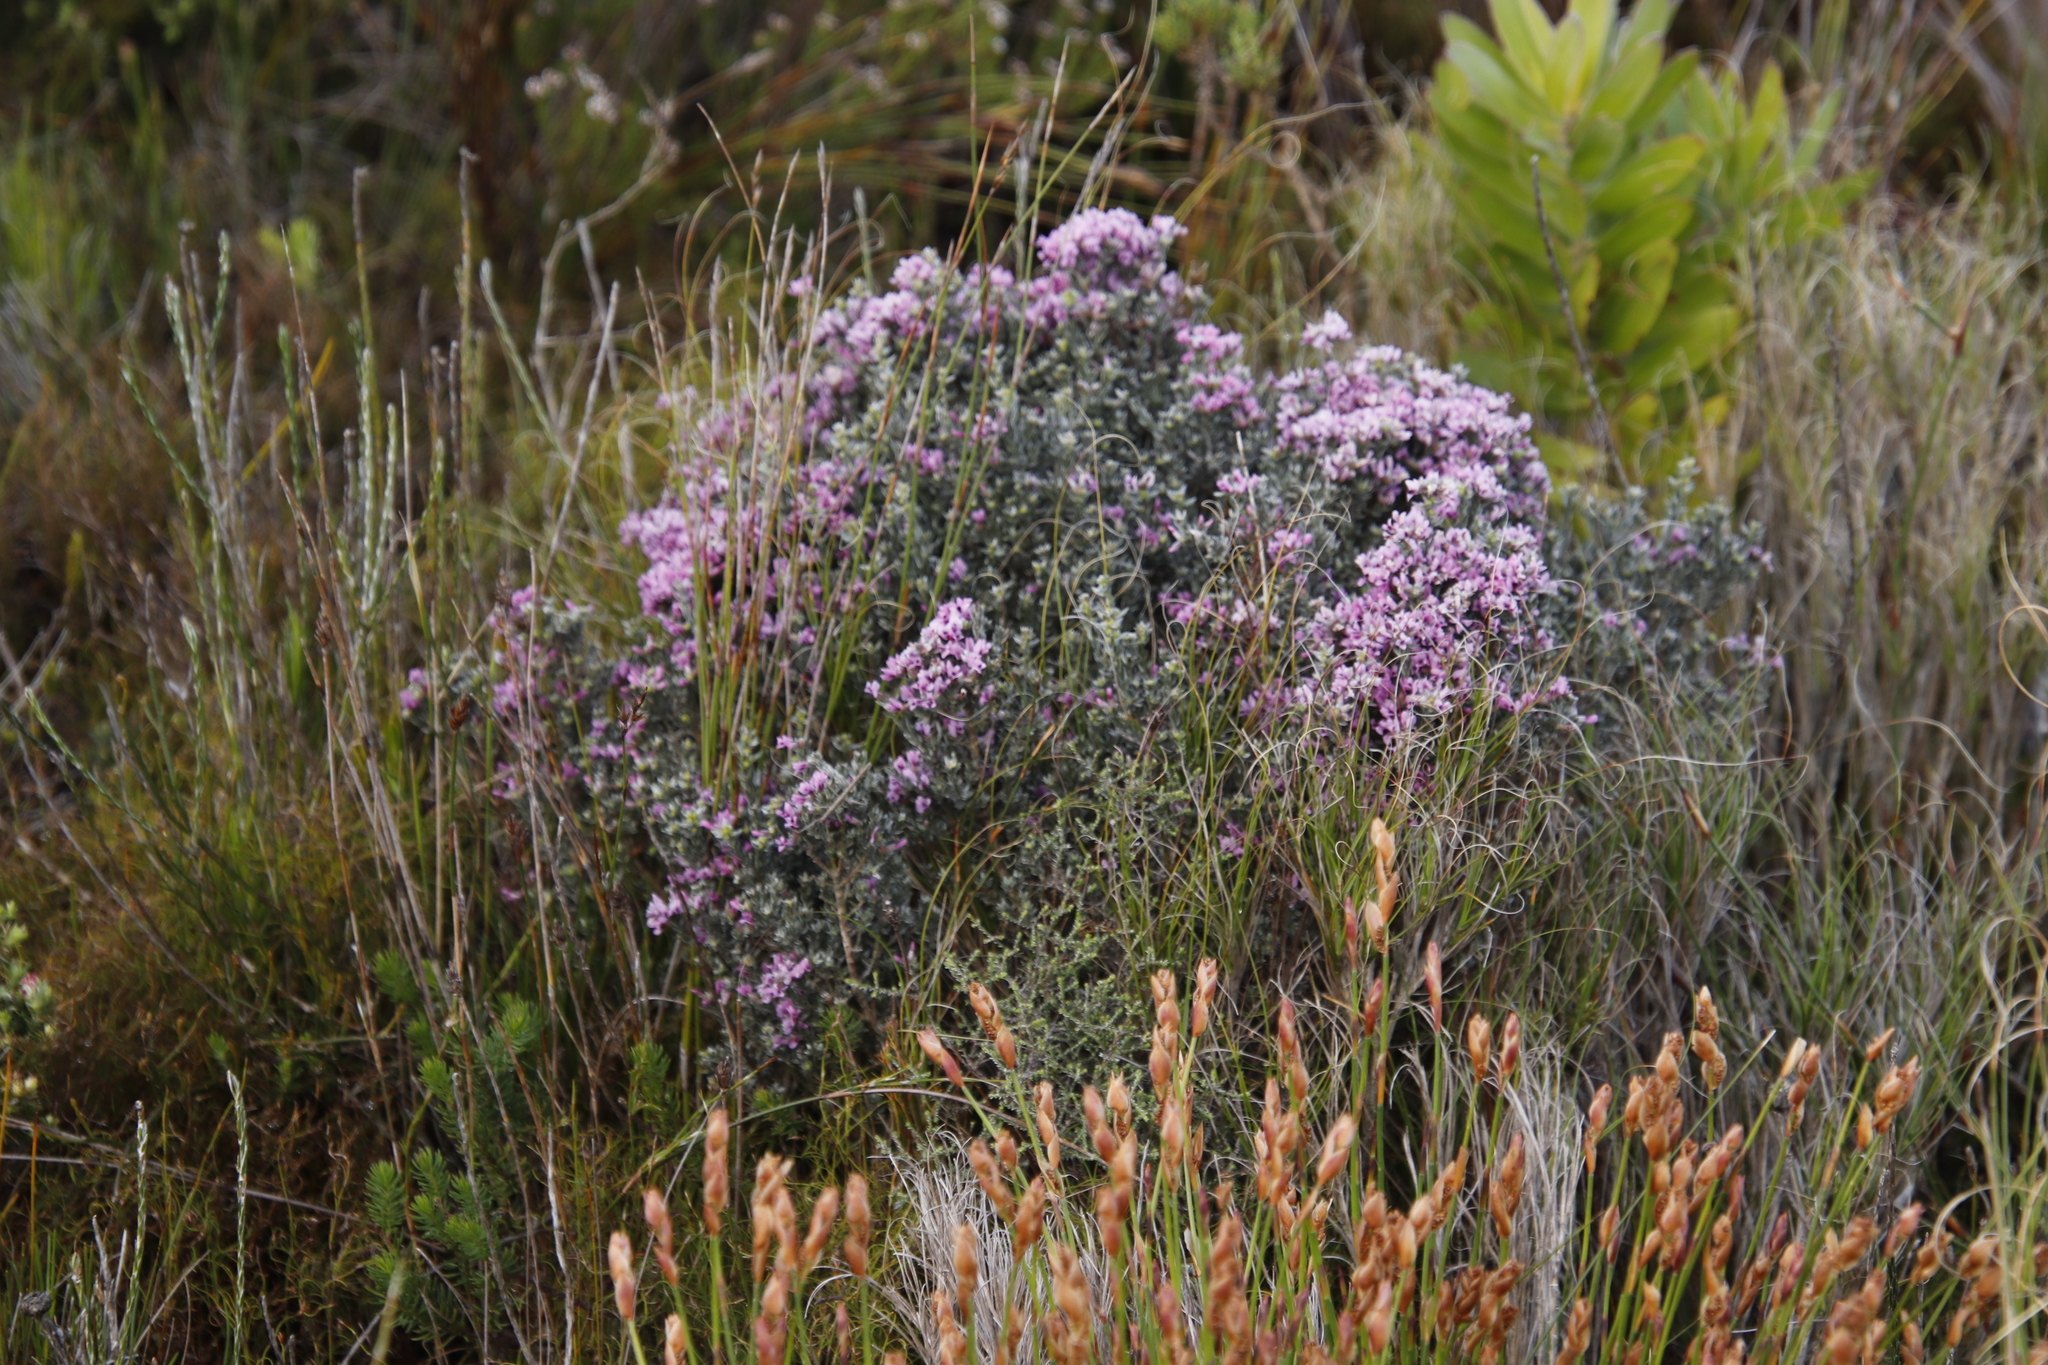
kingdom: Plantae
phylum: Tracheophyta
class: Magnoliopsida
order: Fabales
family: Fabaceae
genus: Amphithalea
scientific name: Amphithalea ericifolia
